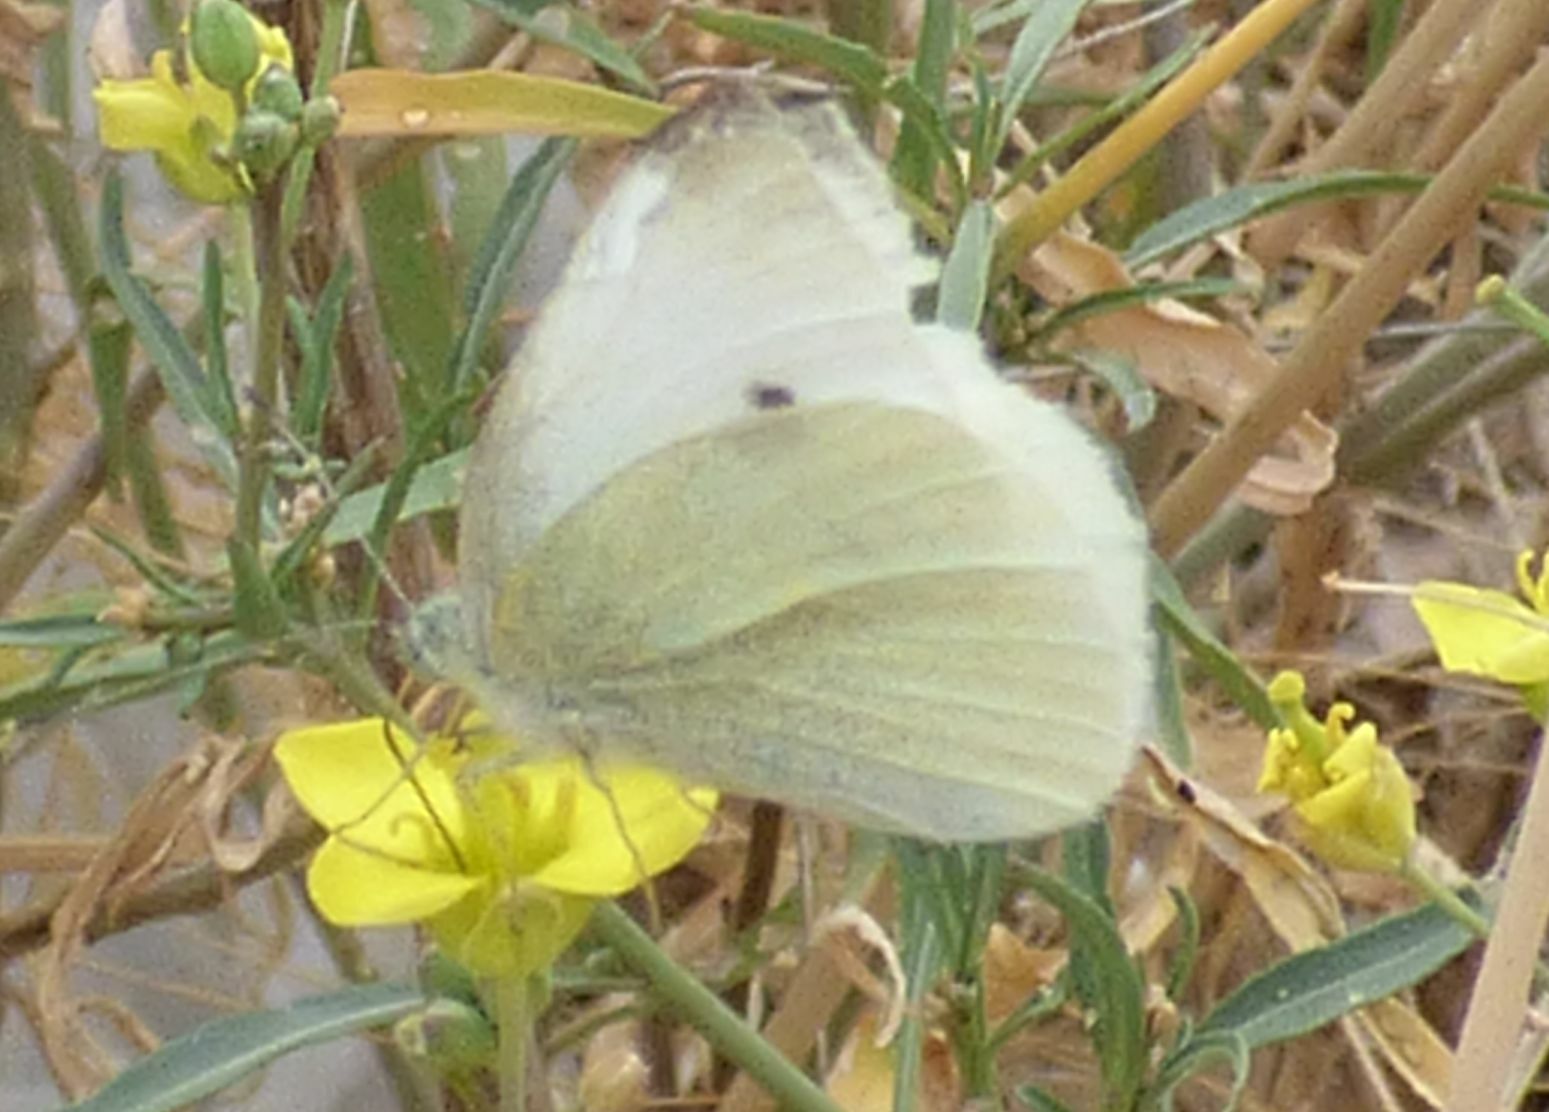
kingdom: Animalia
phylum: Arthropoda
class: Insecta
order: Lepidoptera
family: Pieridae
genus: Pieris
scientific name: Pieris rapae
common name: Small white
